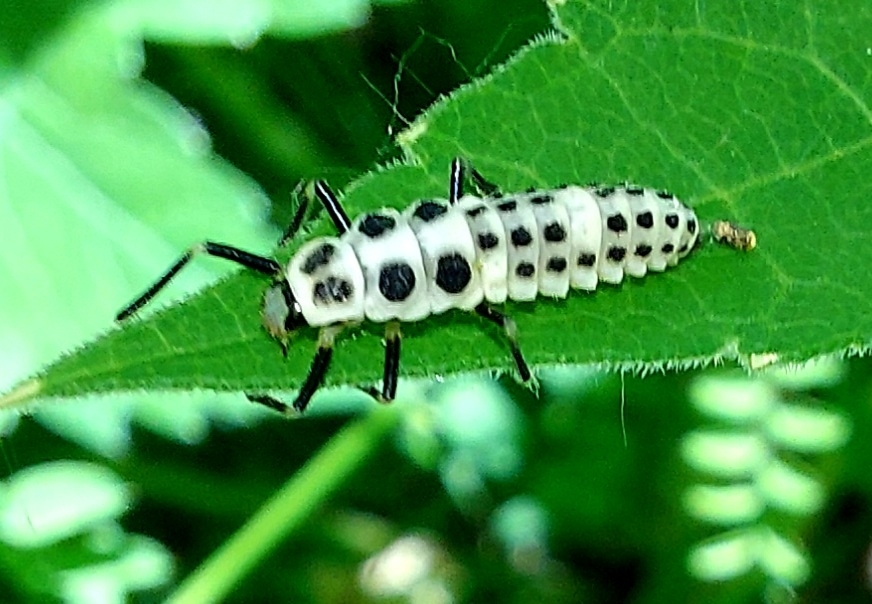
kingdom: Animalia
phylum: Arthropoda
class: Insecta
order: Coleoptera
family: Coccinellidae
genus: Calvia
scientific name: Calvia decemguttata
